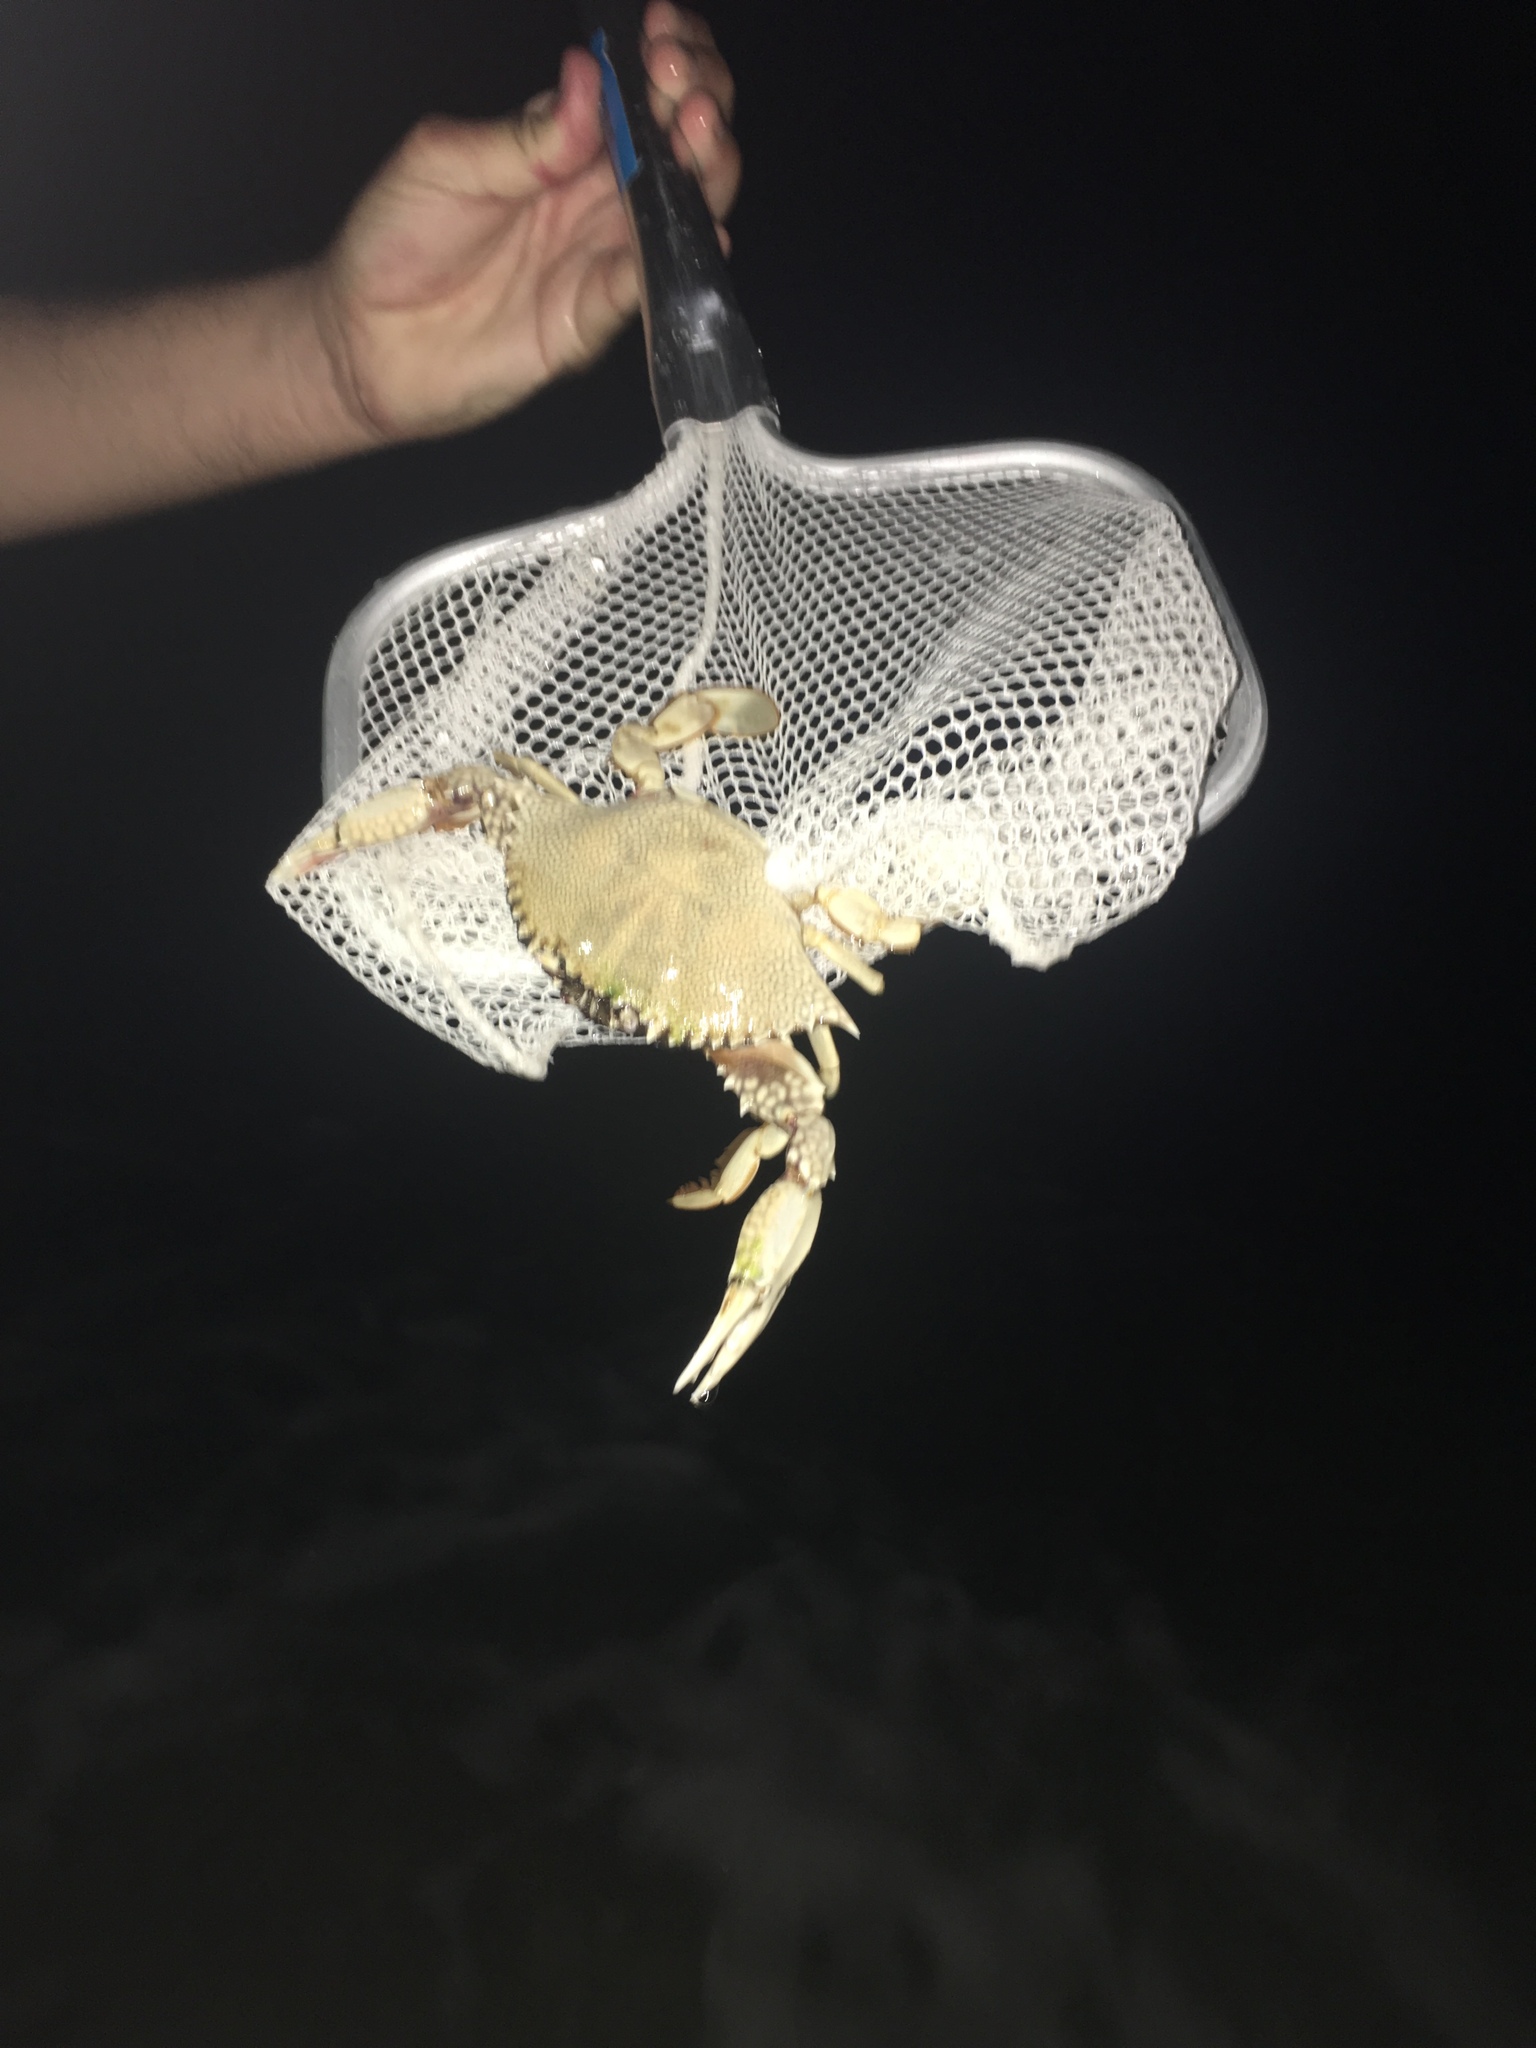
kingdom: Animalia
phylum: Arthropoda
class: Malacostraca
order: Decapoda
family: Portunidae
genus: Arenaeus
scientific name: Arenaeus cribrarius
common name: Speckled crab
